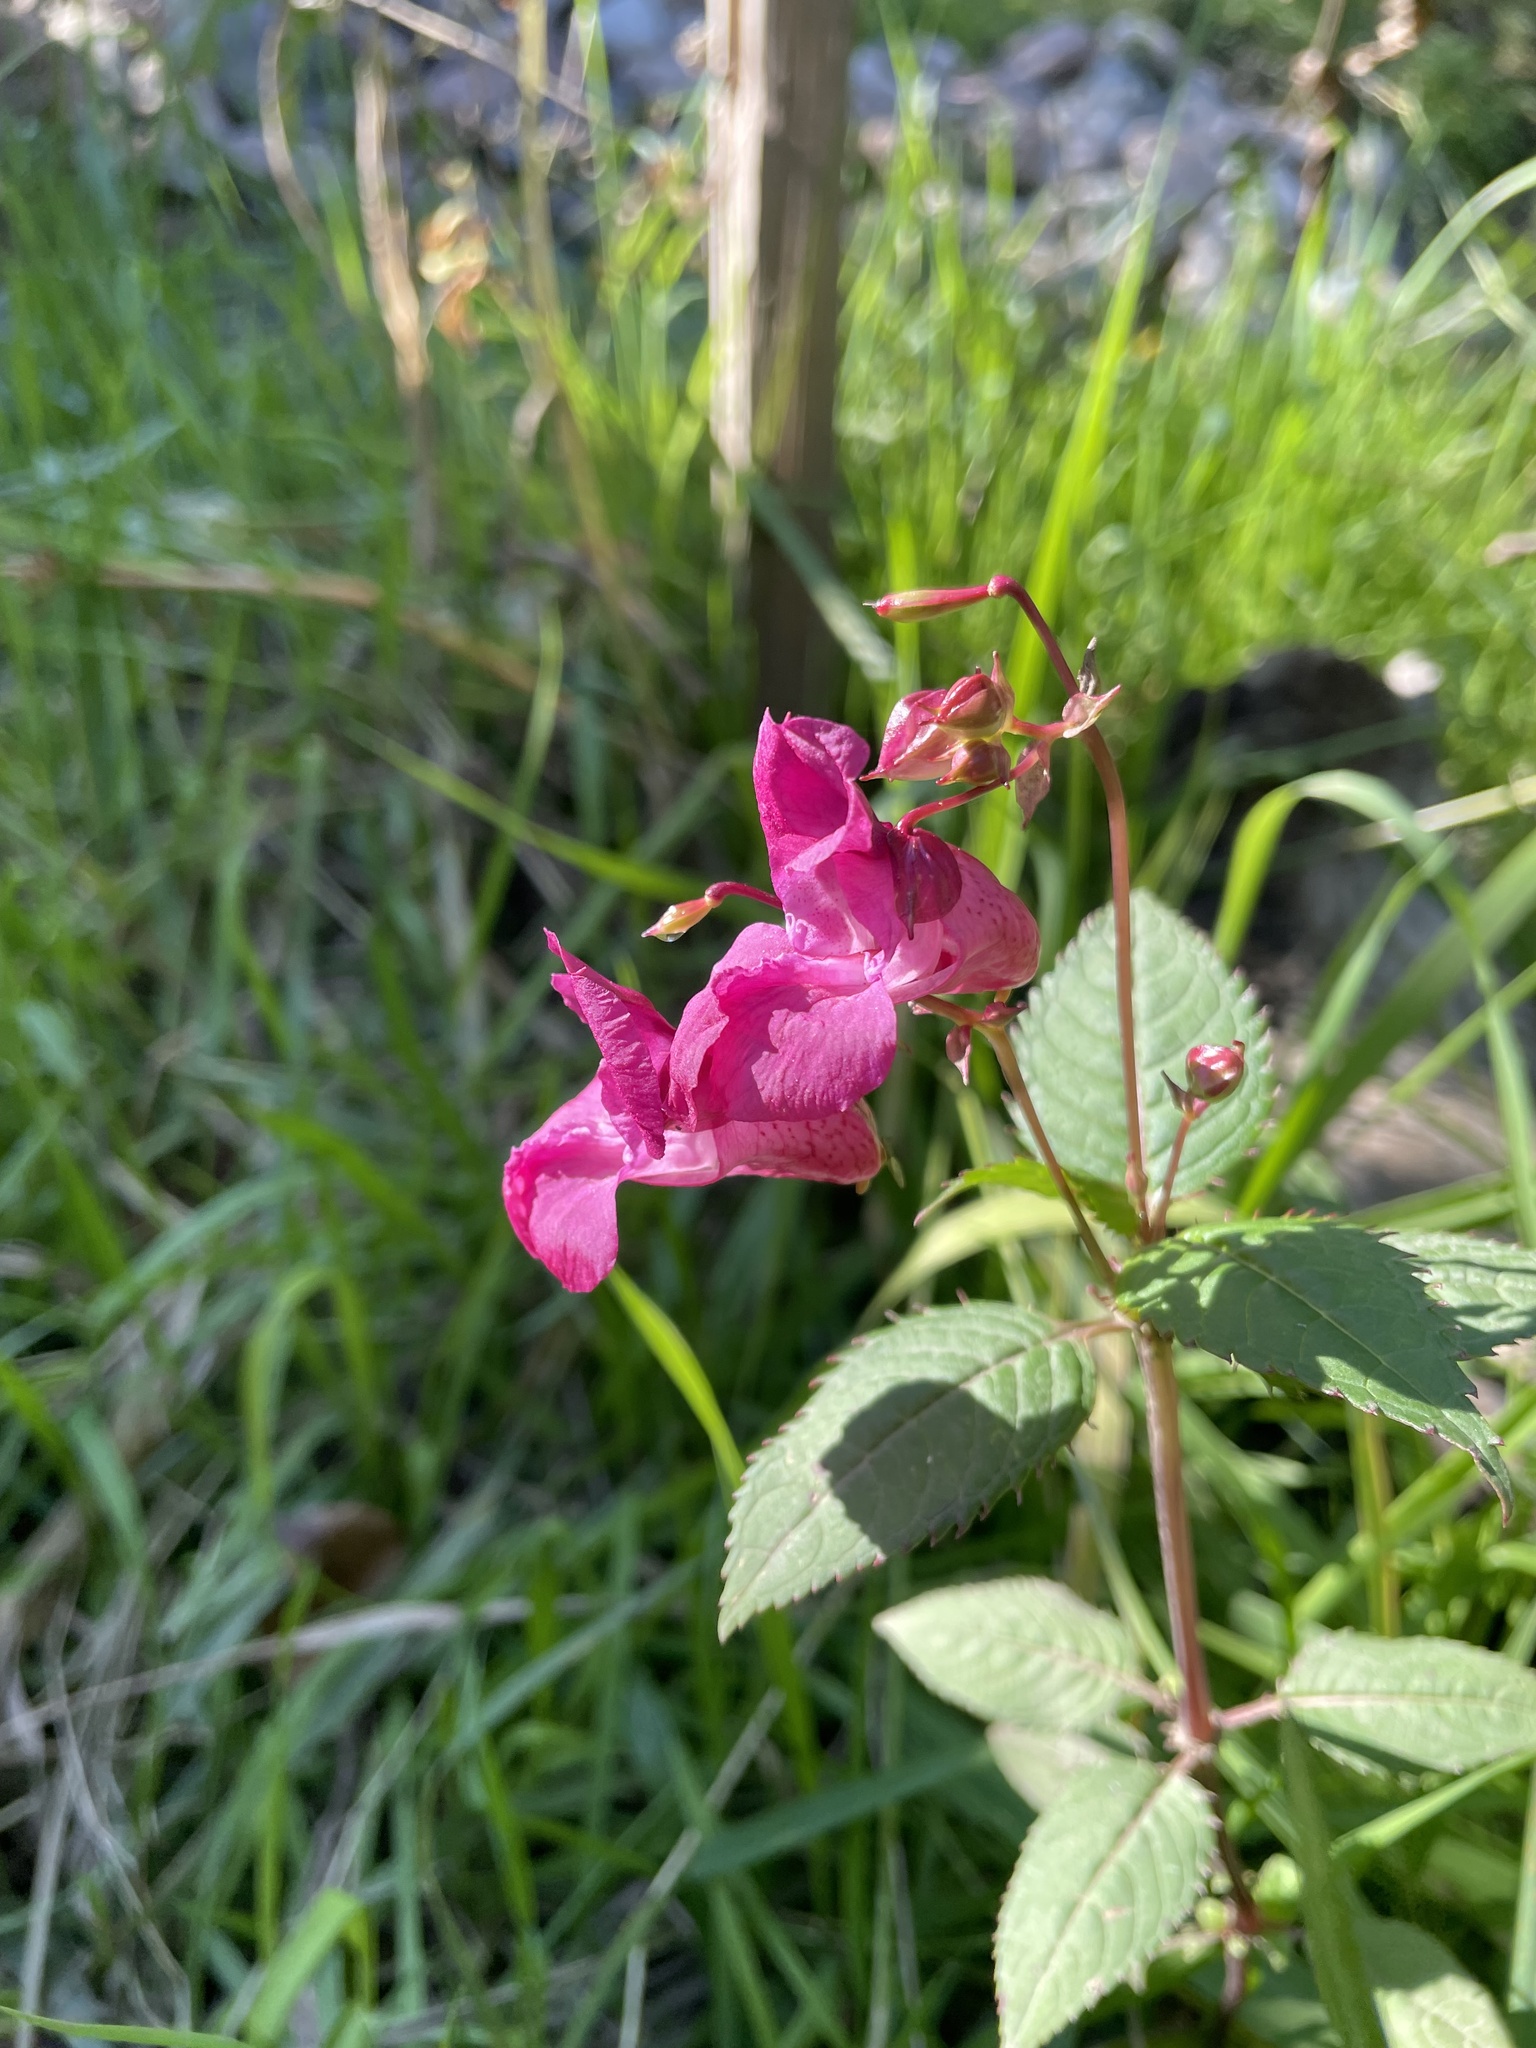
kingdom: Plantae
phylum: Tracheophyta
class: Magnoliopsida
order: Ericales
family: Balsaminaceae
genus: Impatiens
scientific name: Impatiens glandulifera
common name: Himalayan balsam
